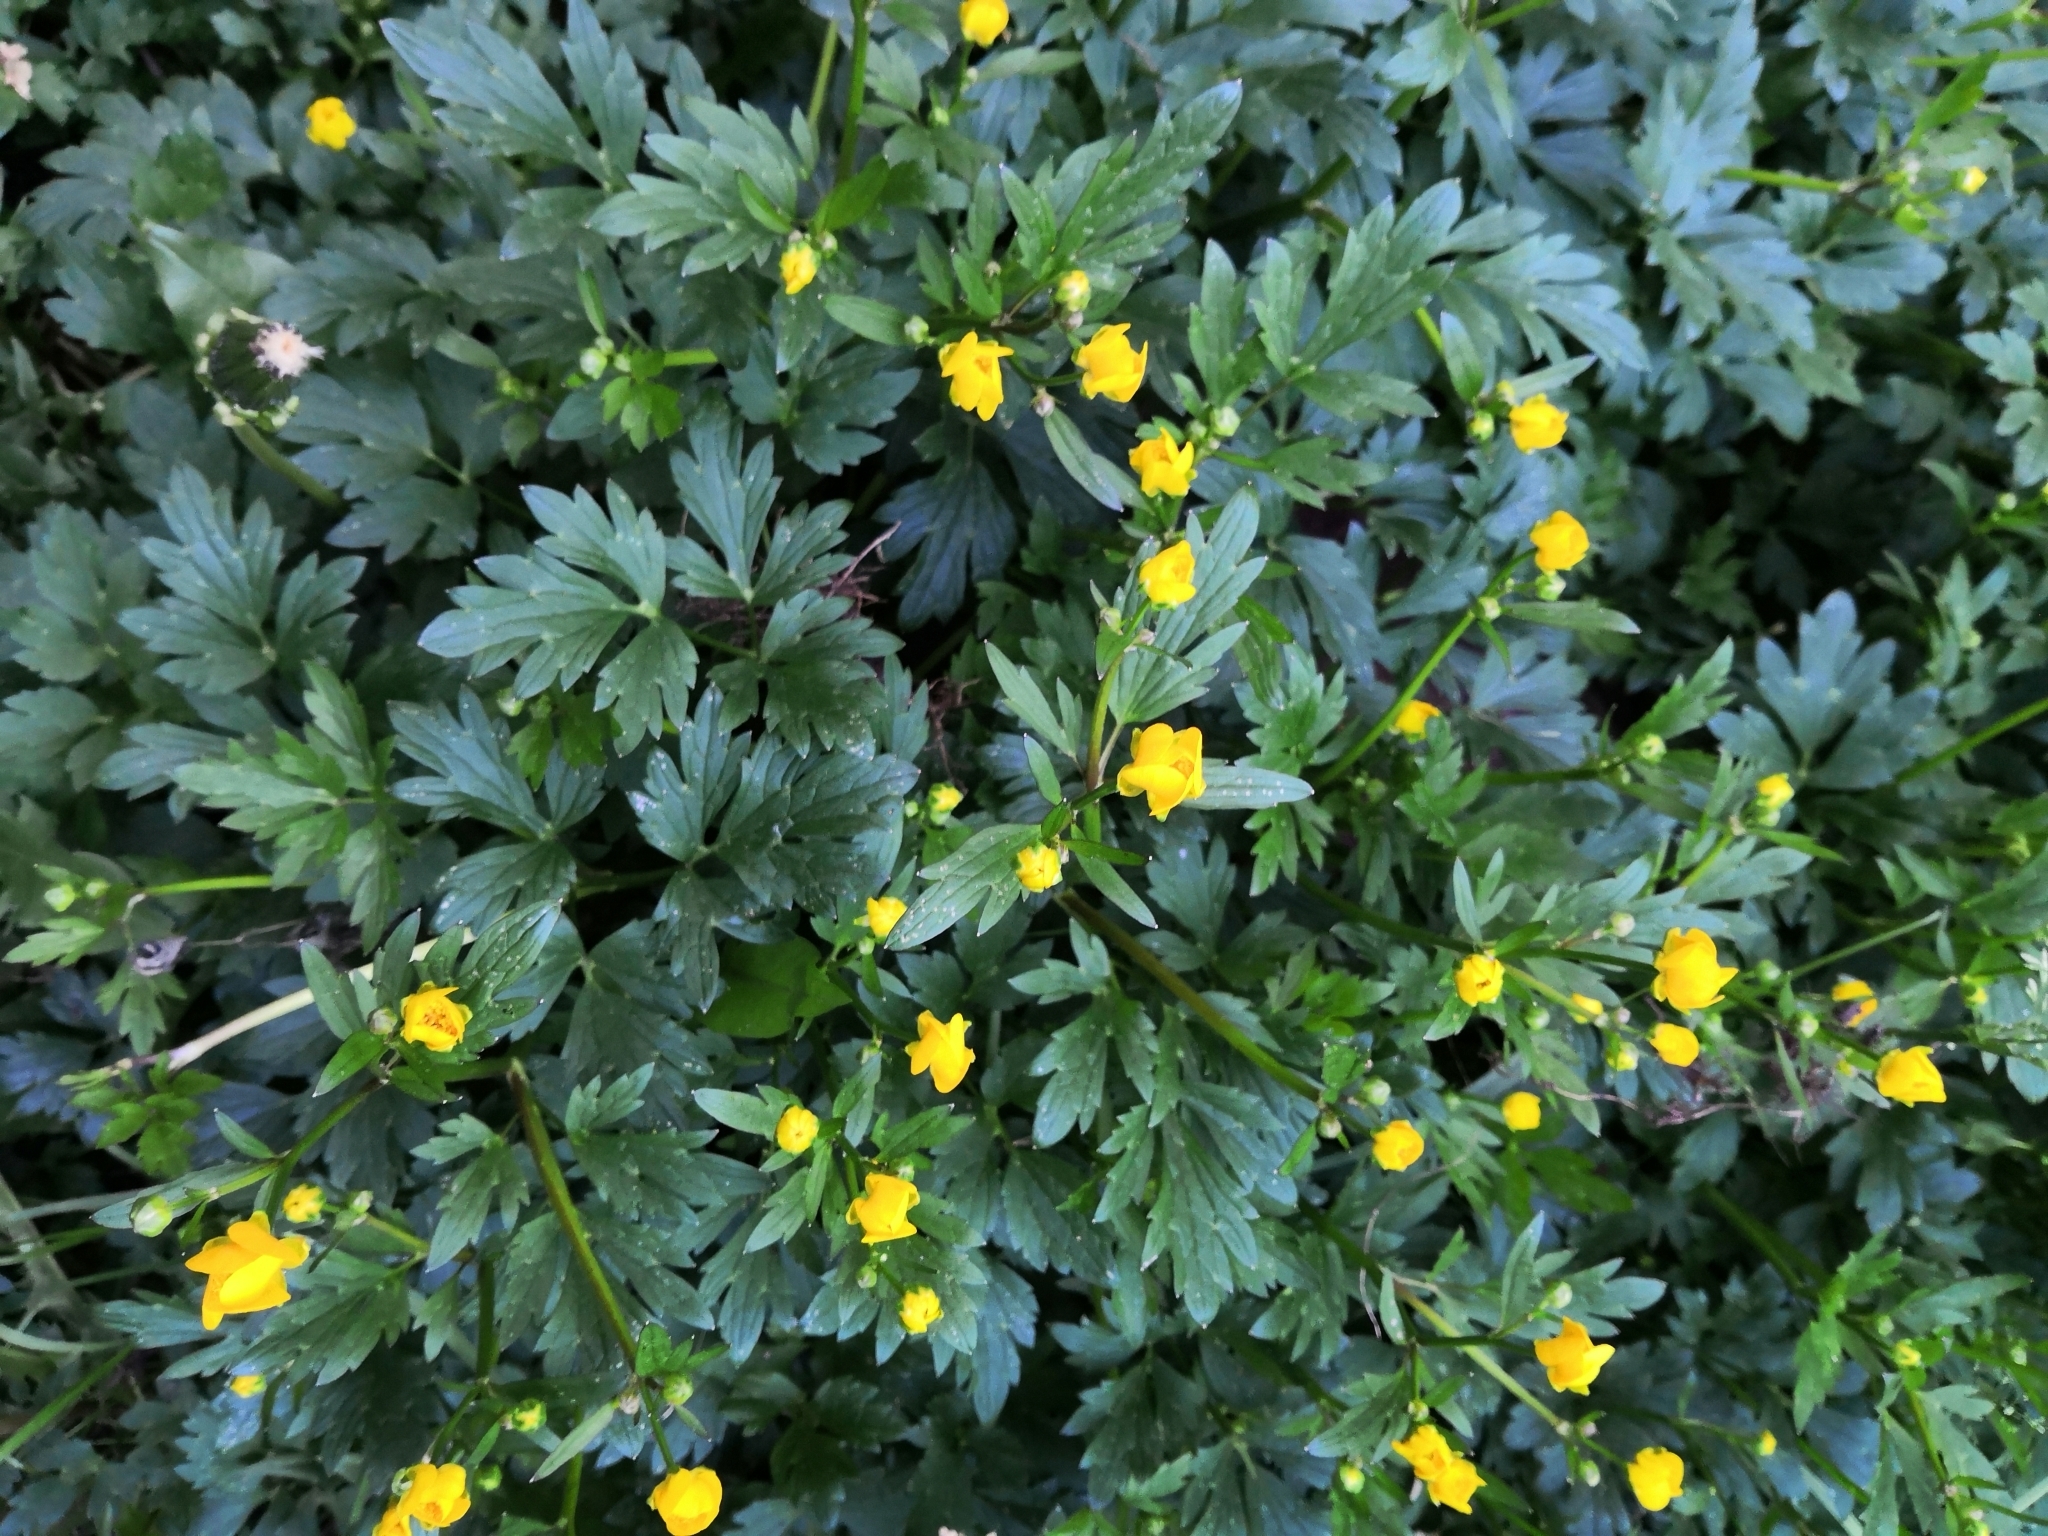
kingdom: Plantae
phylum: Tracheophyta
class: Magnoliopsida
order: Ranunculales
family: Ranunculaceae
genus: Ranunculus
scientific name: Ranunculus repens
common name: Creeping buttercup
